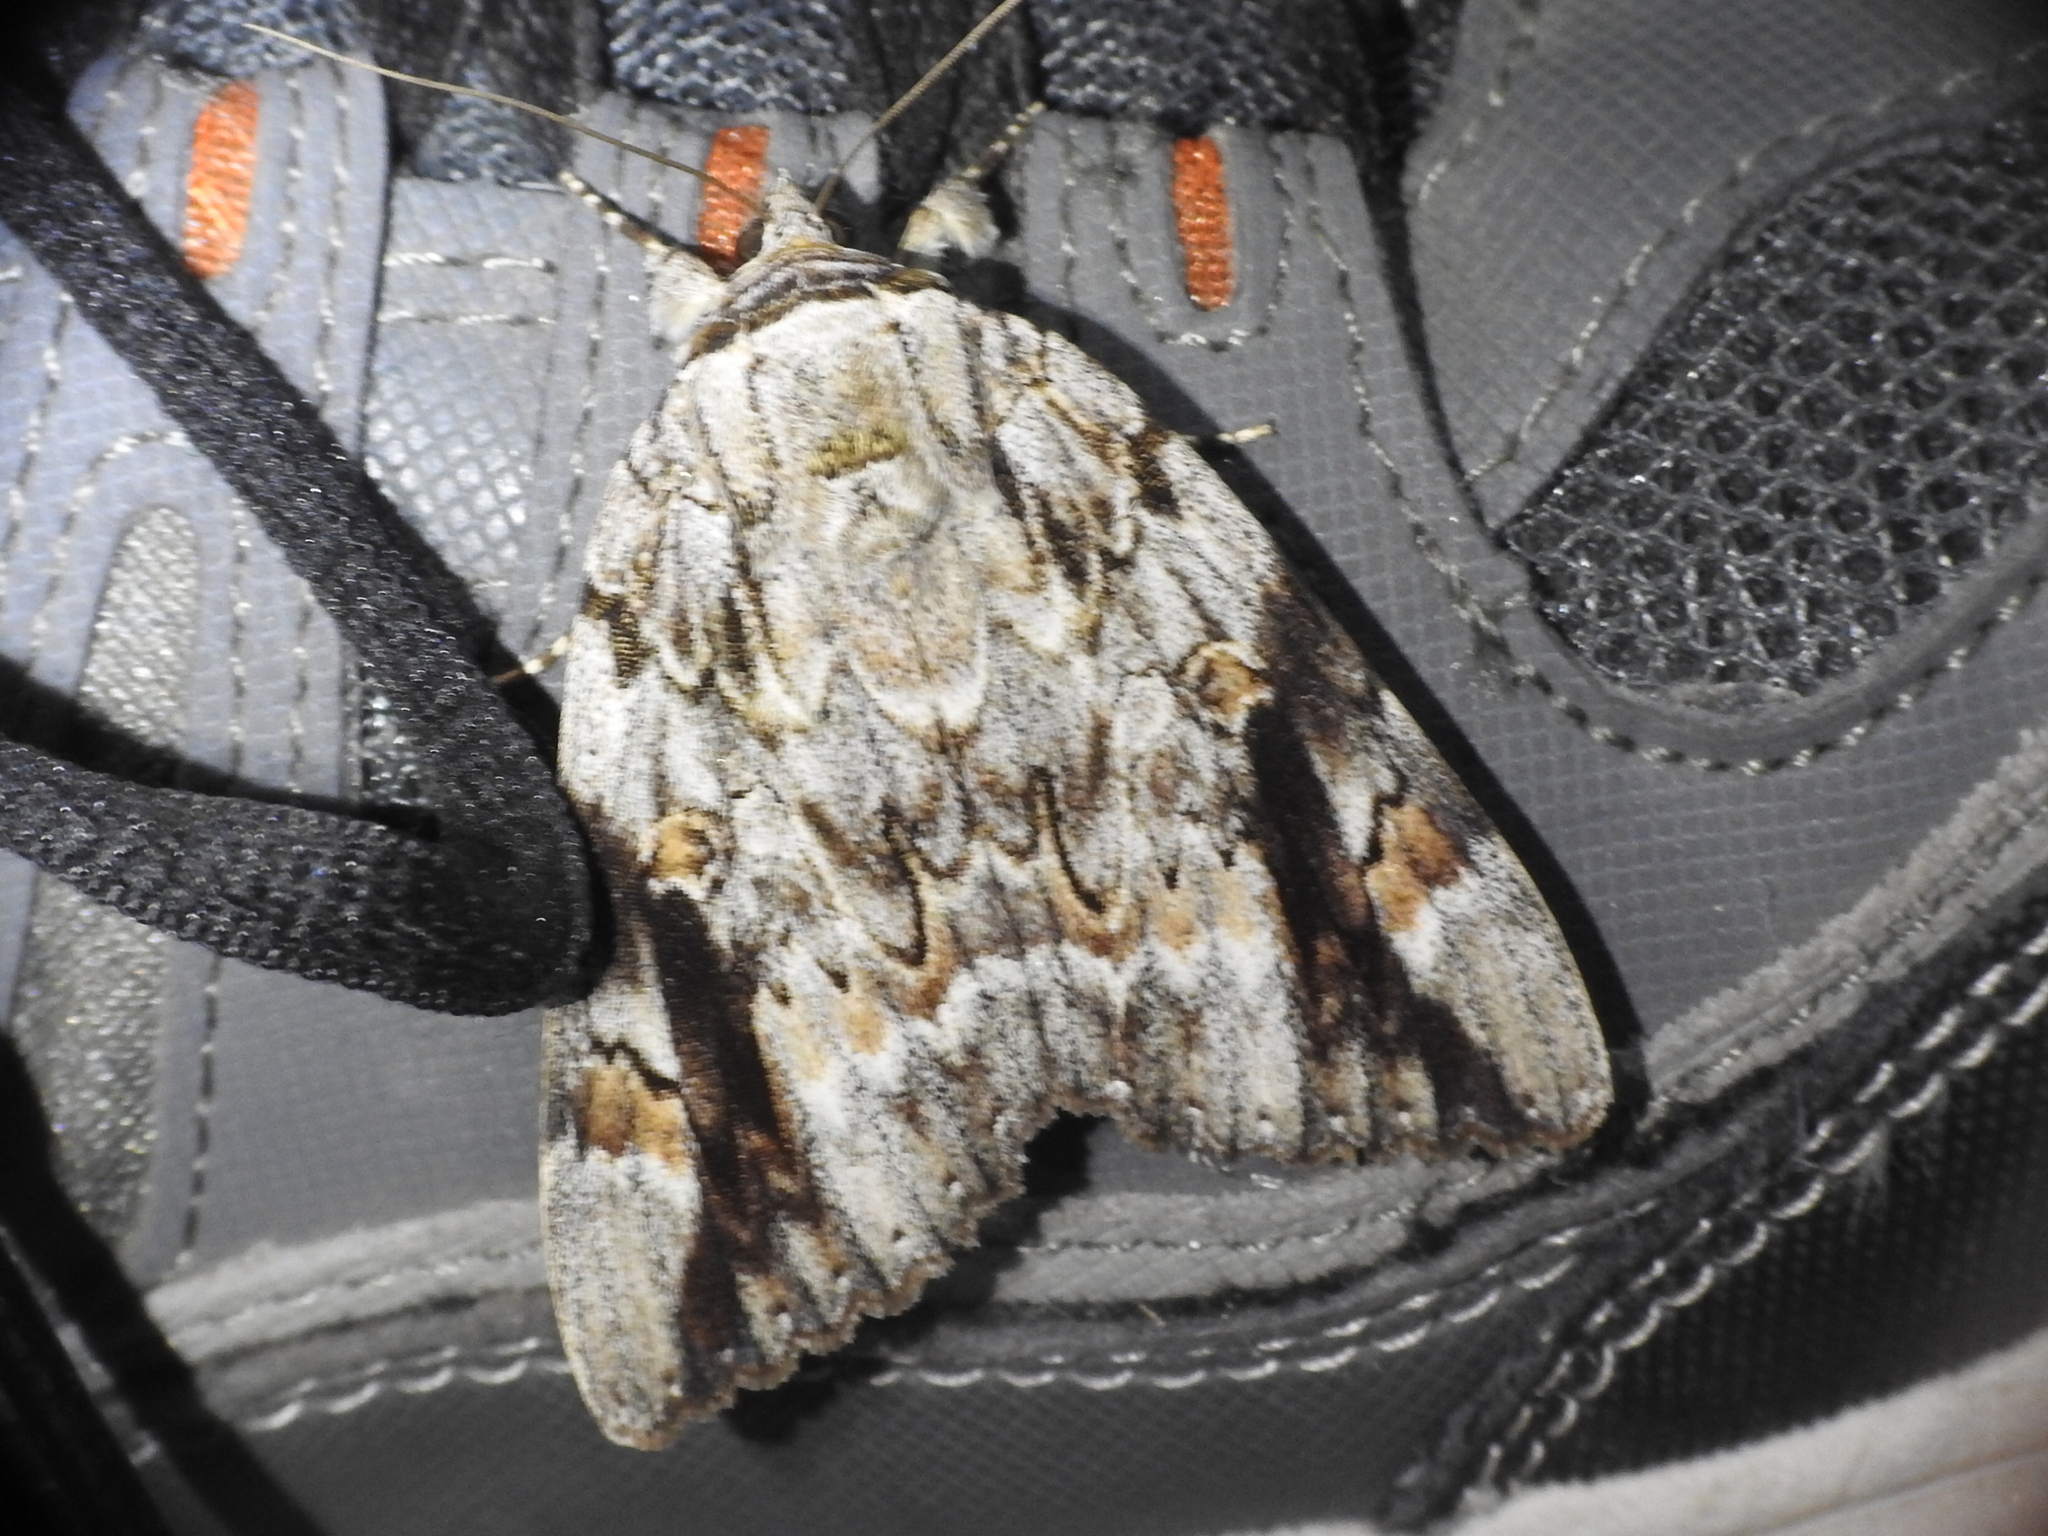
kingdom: Animalia
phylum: Arthropoda
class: Insecta
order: Lepidoptera
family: Erebidae
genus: Catocala
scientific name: Catocala maestosa
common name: Sad underwing
